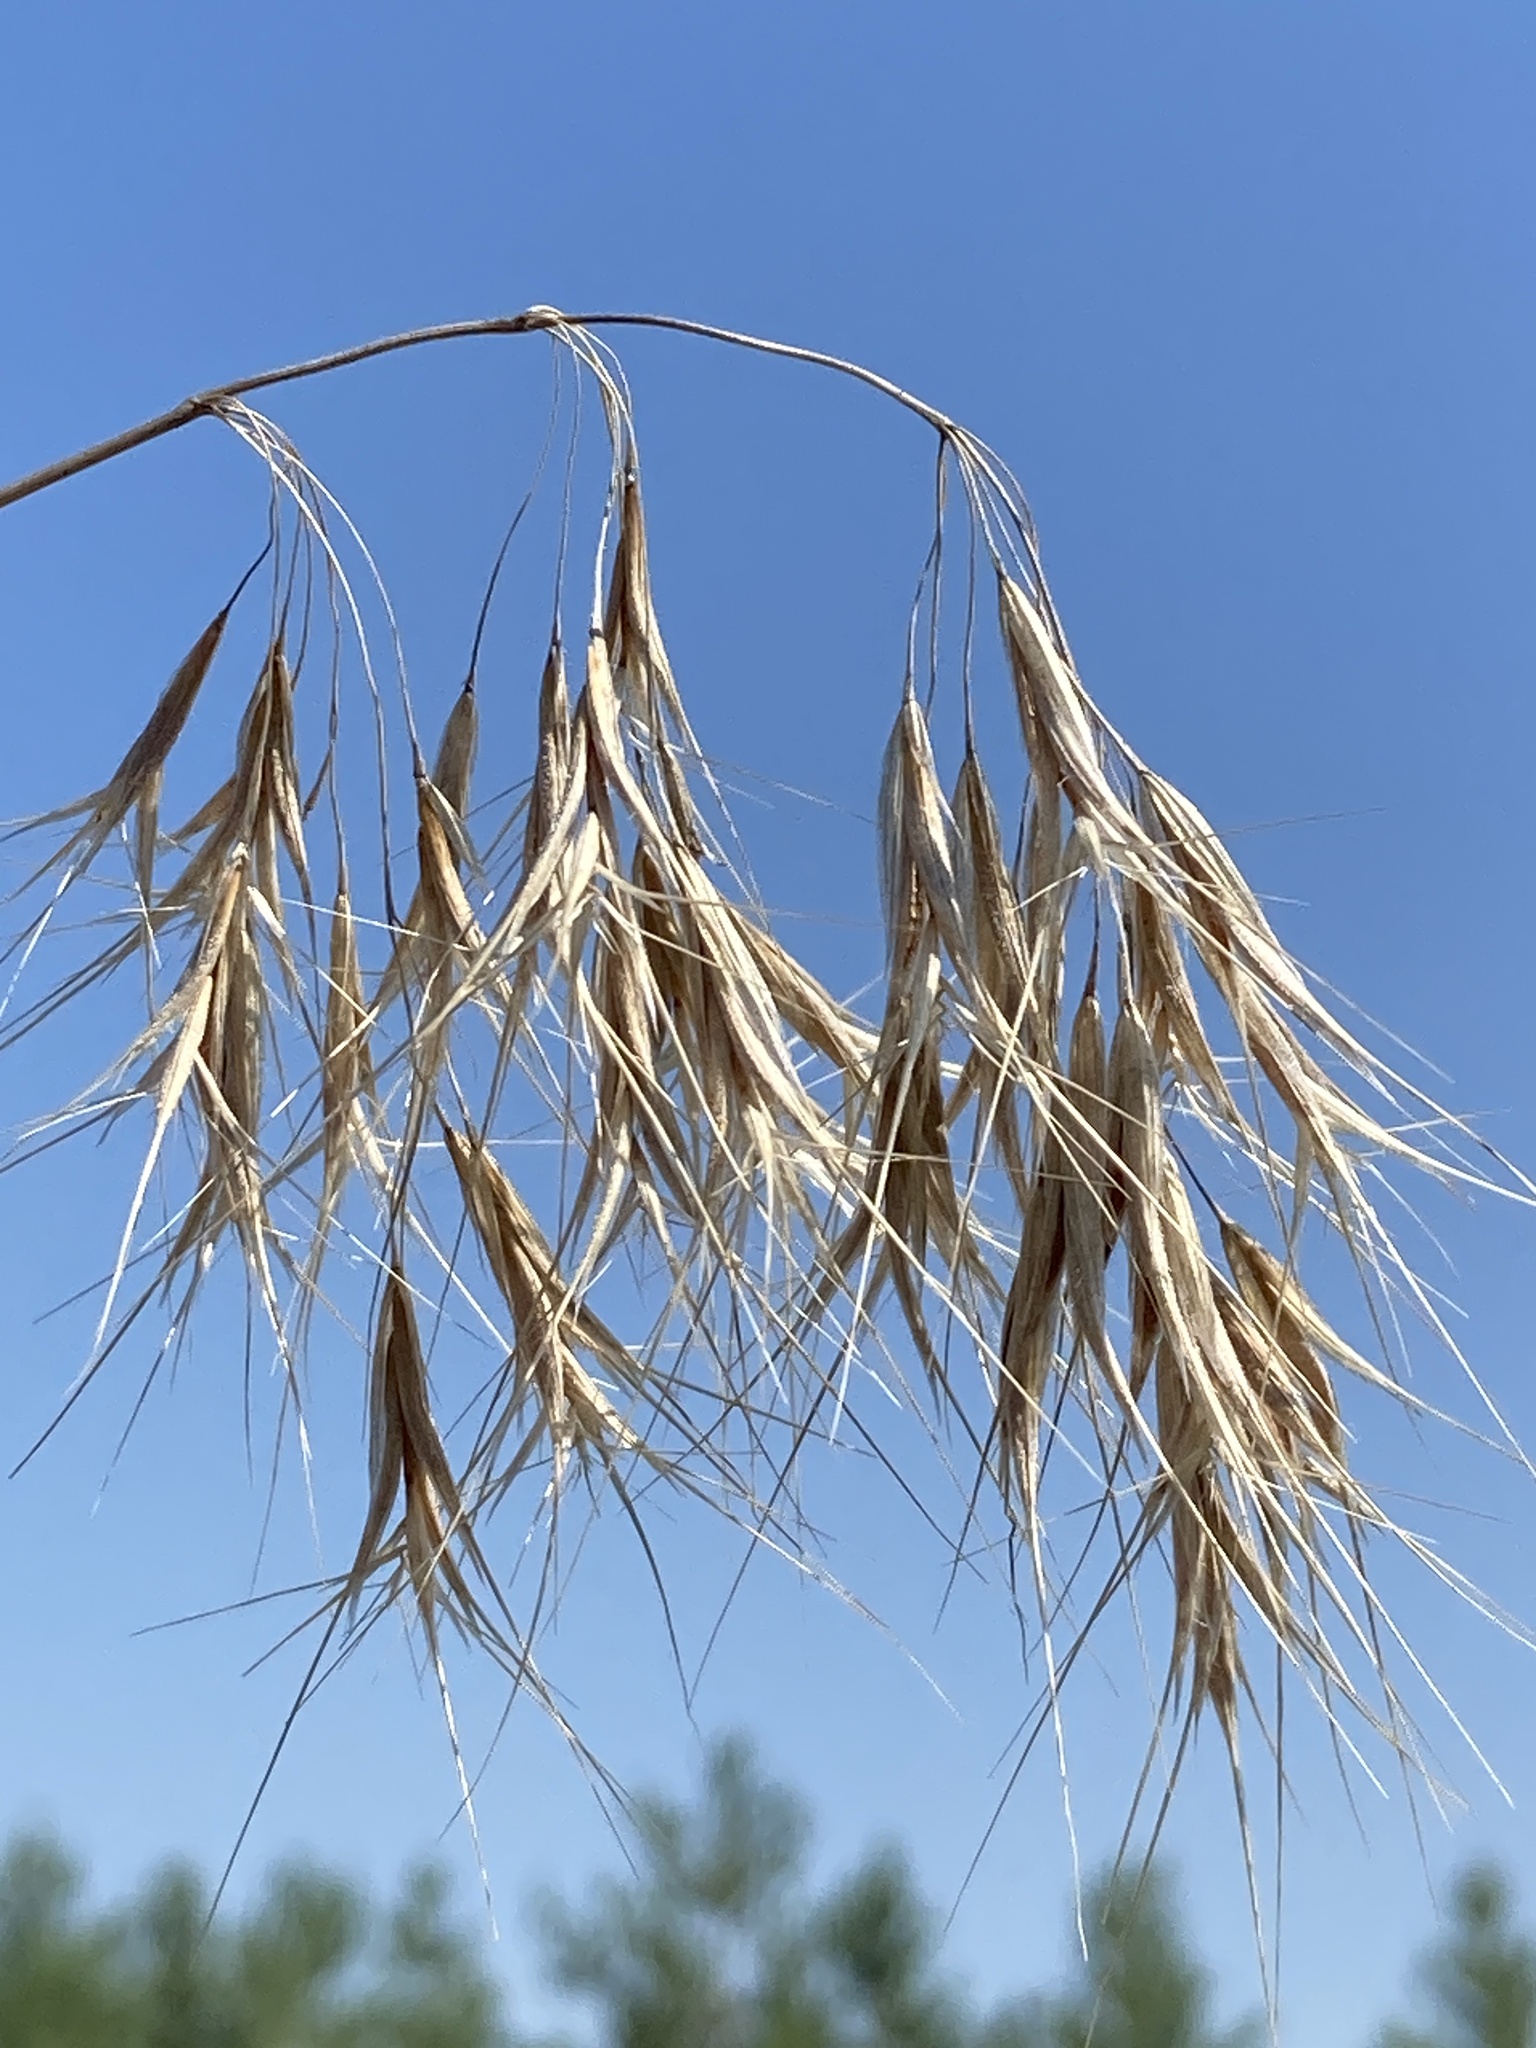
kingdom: Plantae
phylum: Tracheophyta
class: Liliopsida
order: Poales
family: Poaceae
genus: Bromus
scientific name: Bromus tectorum
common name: Cheatgrass
